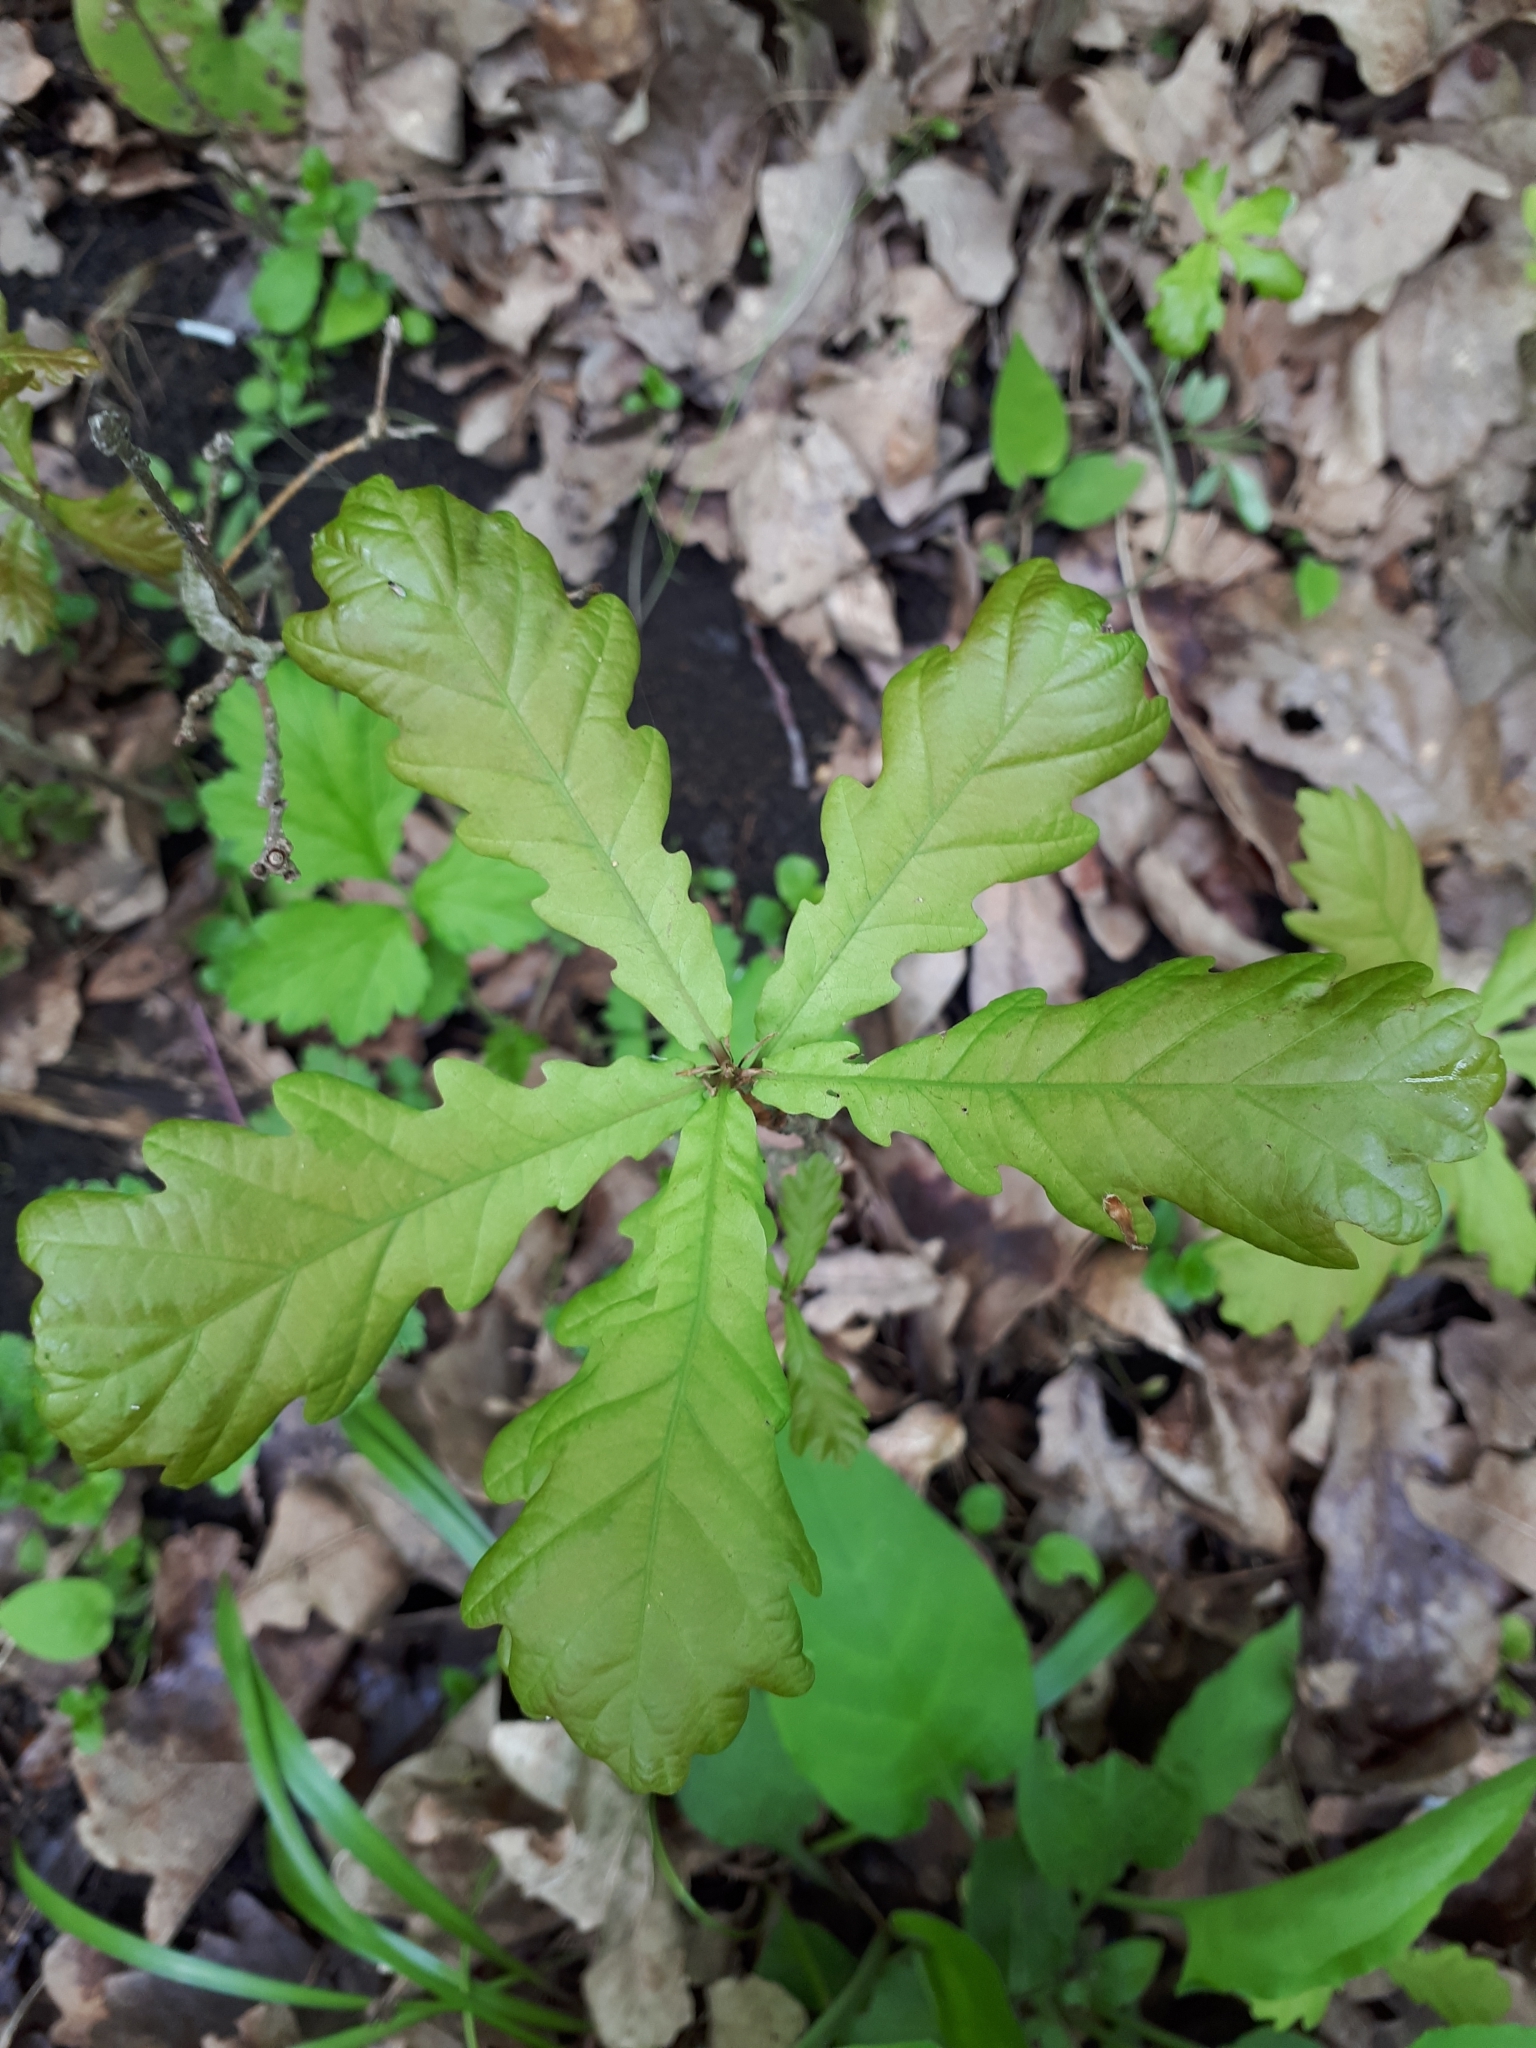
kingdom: Plantae
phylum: Tracheophyta
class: Magnoliopsida
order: Fagales
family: Fagaceae
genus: Quercus
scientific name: Quercus robur
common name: Pedunculate oak
